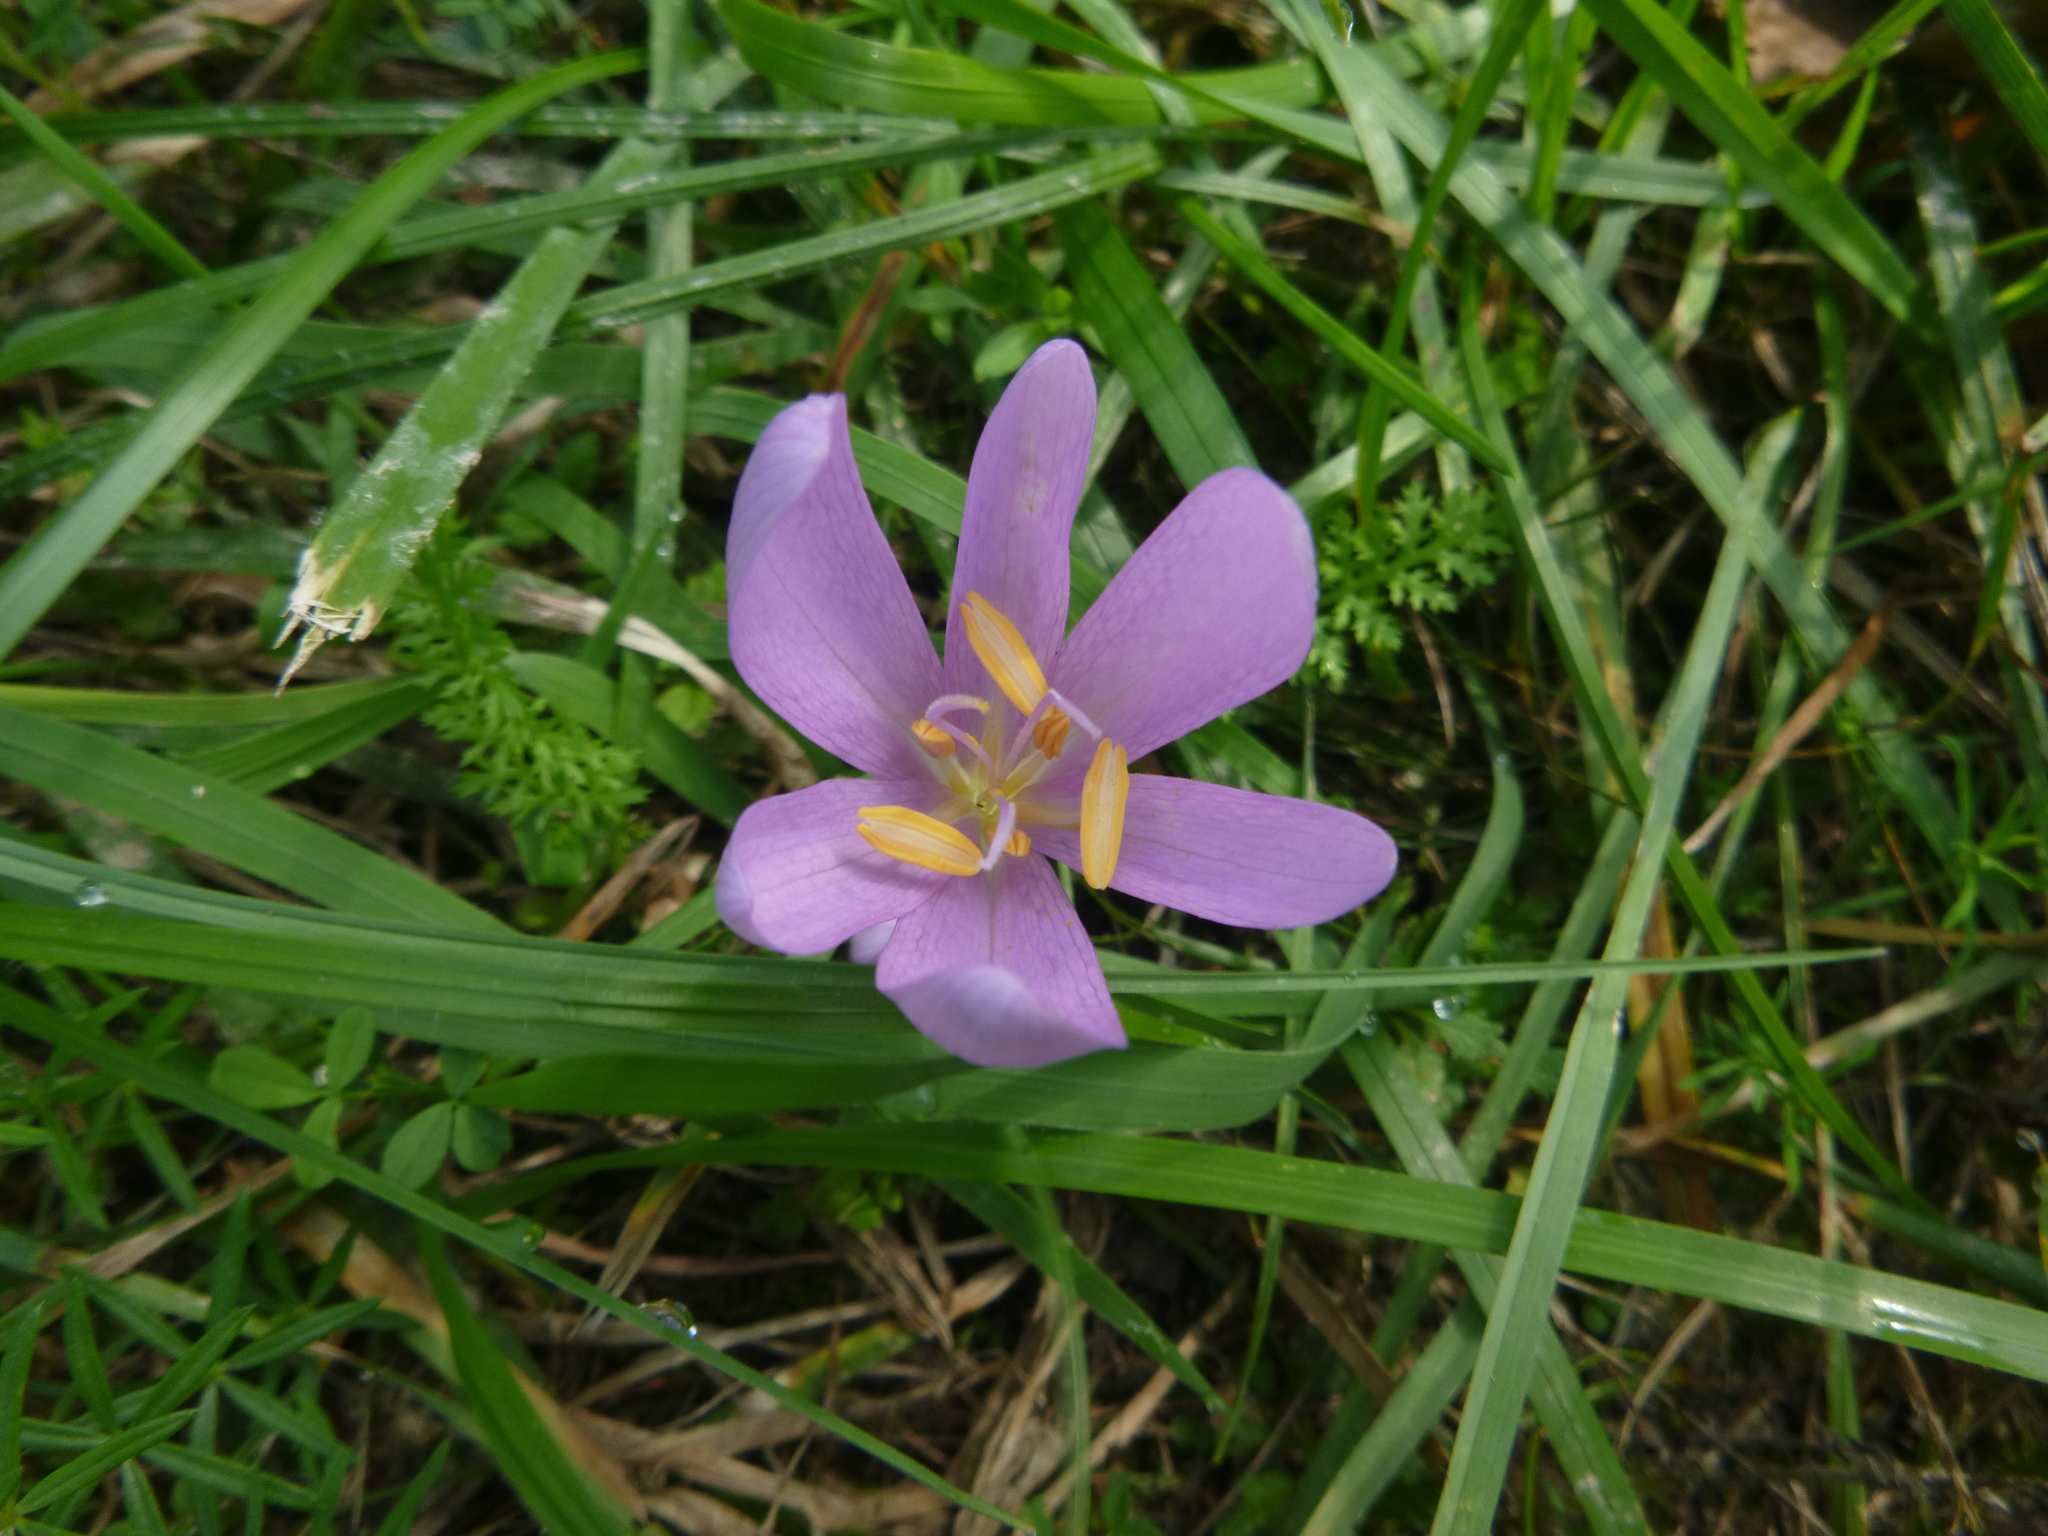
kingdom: Plantae
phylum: Tracheophyta
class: Liliopsida
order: Liliales
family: Colchicaceae
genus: Colchicum
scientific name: Colchicum autumnale
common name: Autumn crocus
